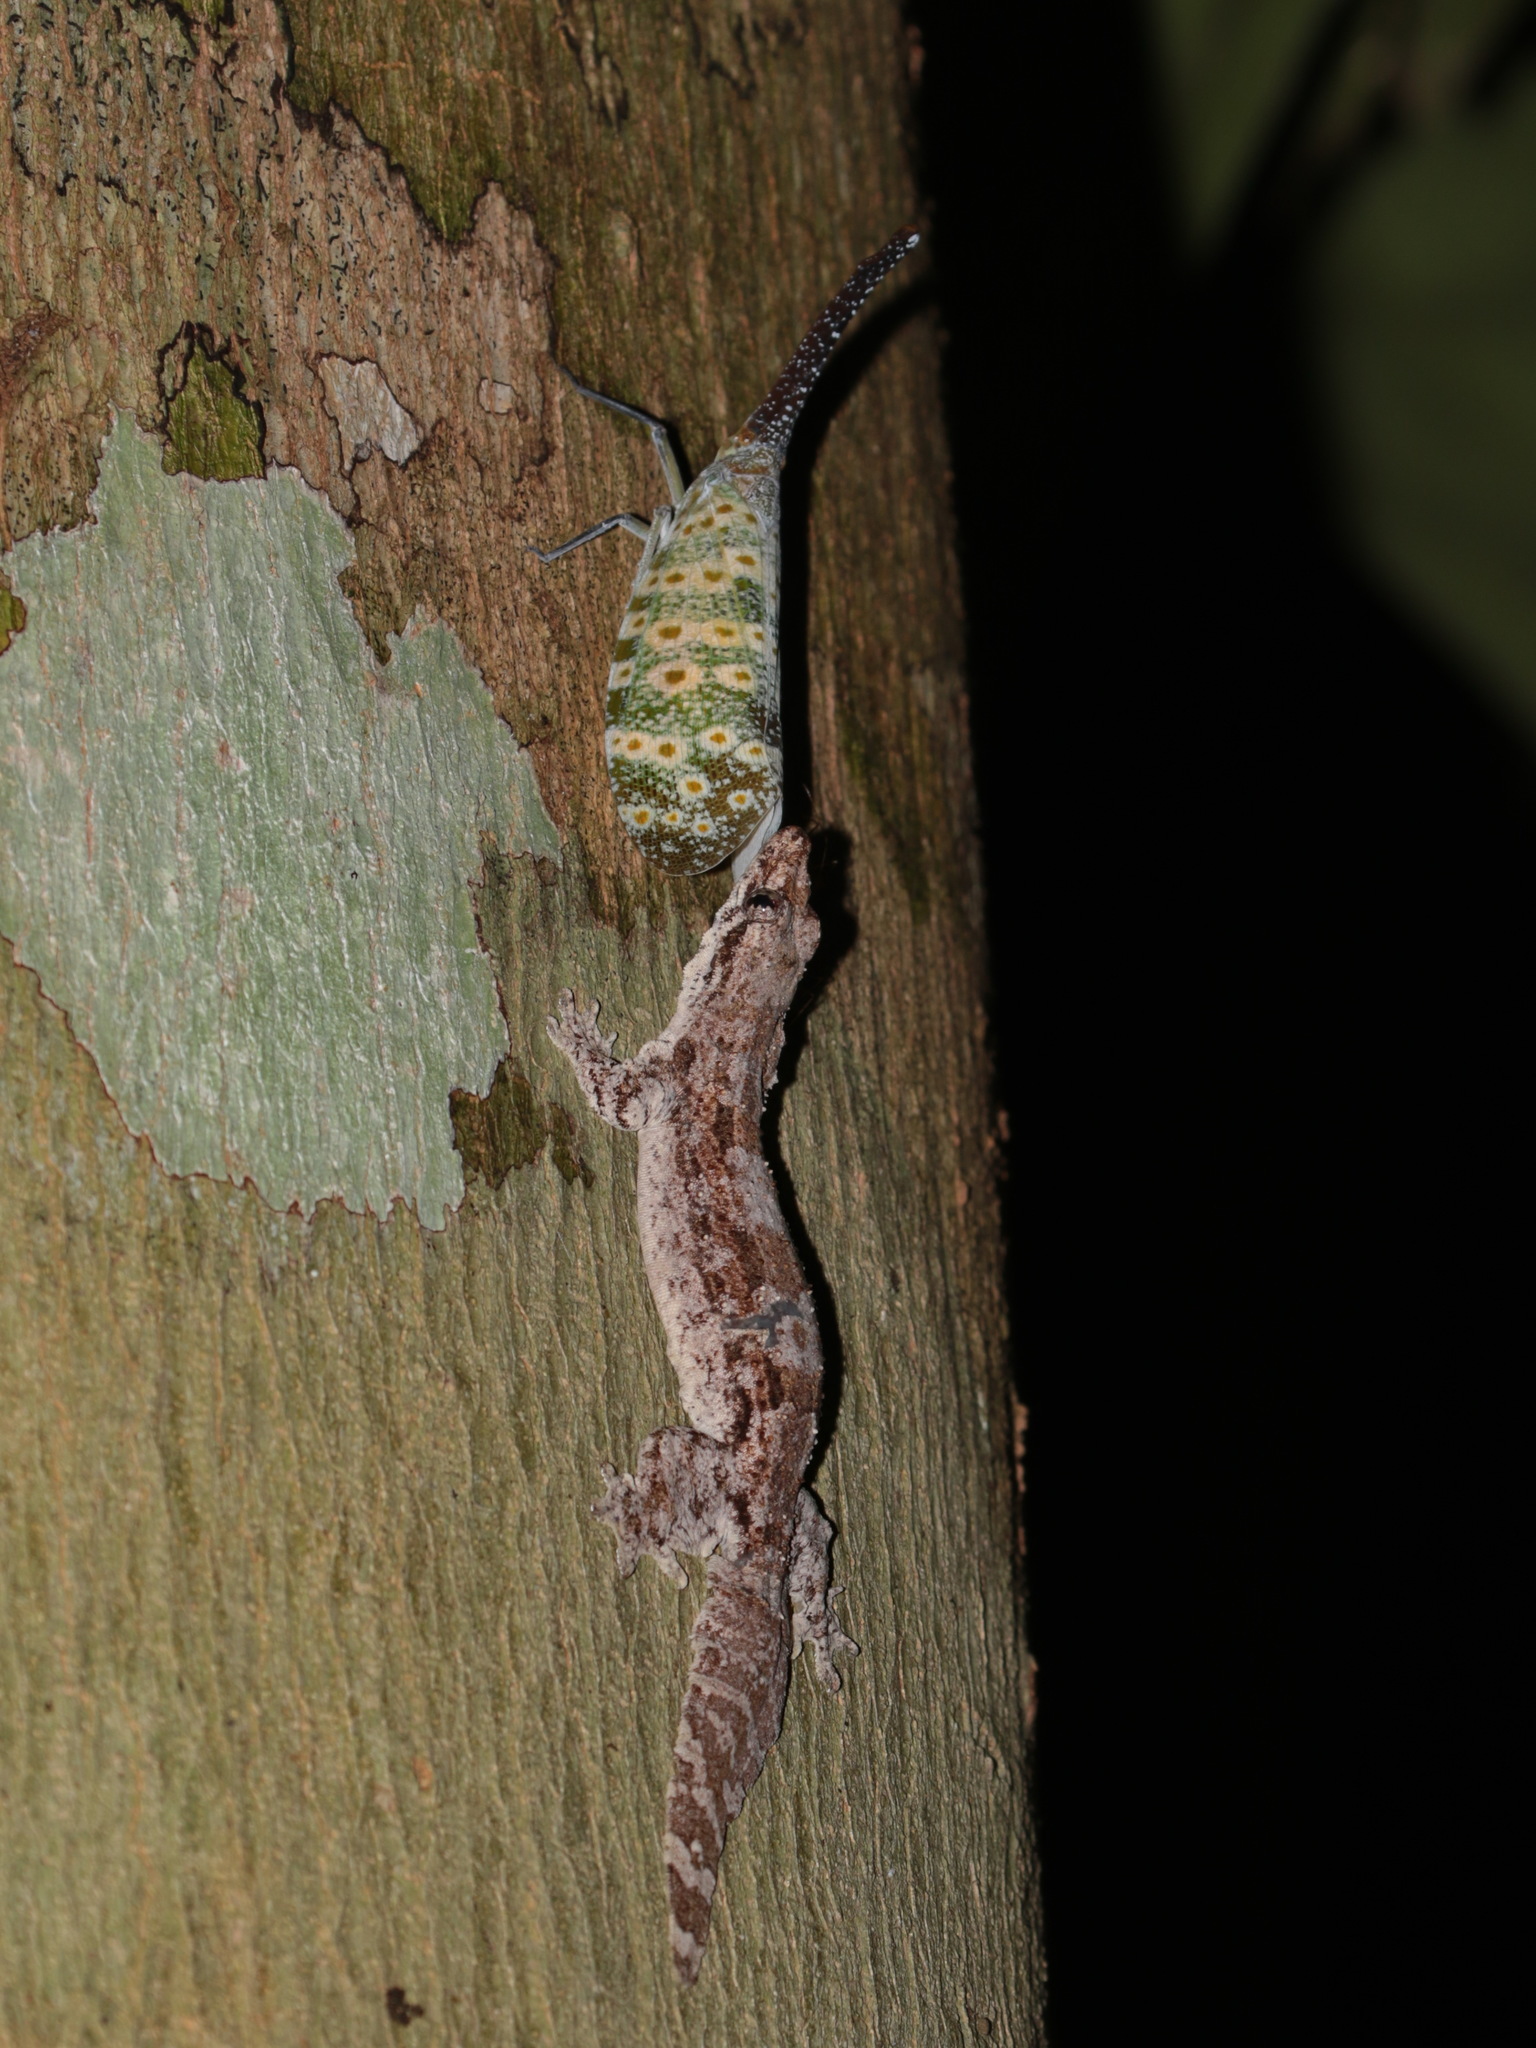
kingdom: Animalia
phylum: Chordata
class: Squamata
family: Gekkonidae
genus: Hemidactylus
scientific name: Hemidactylus craspedotus
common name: Frilled gecko
